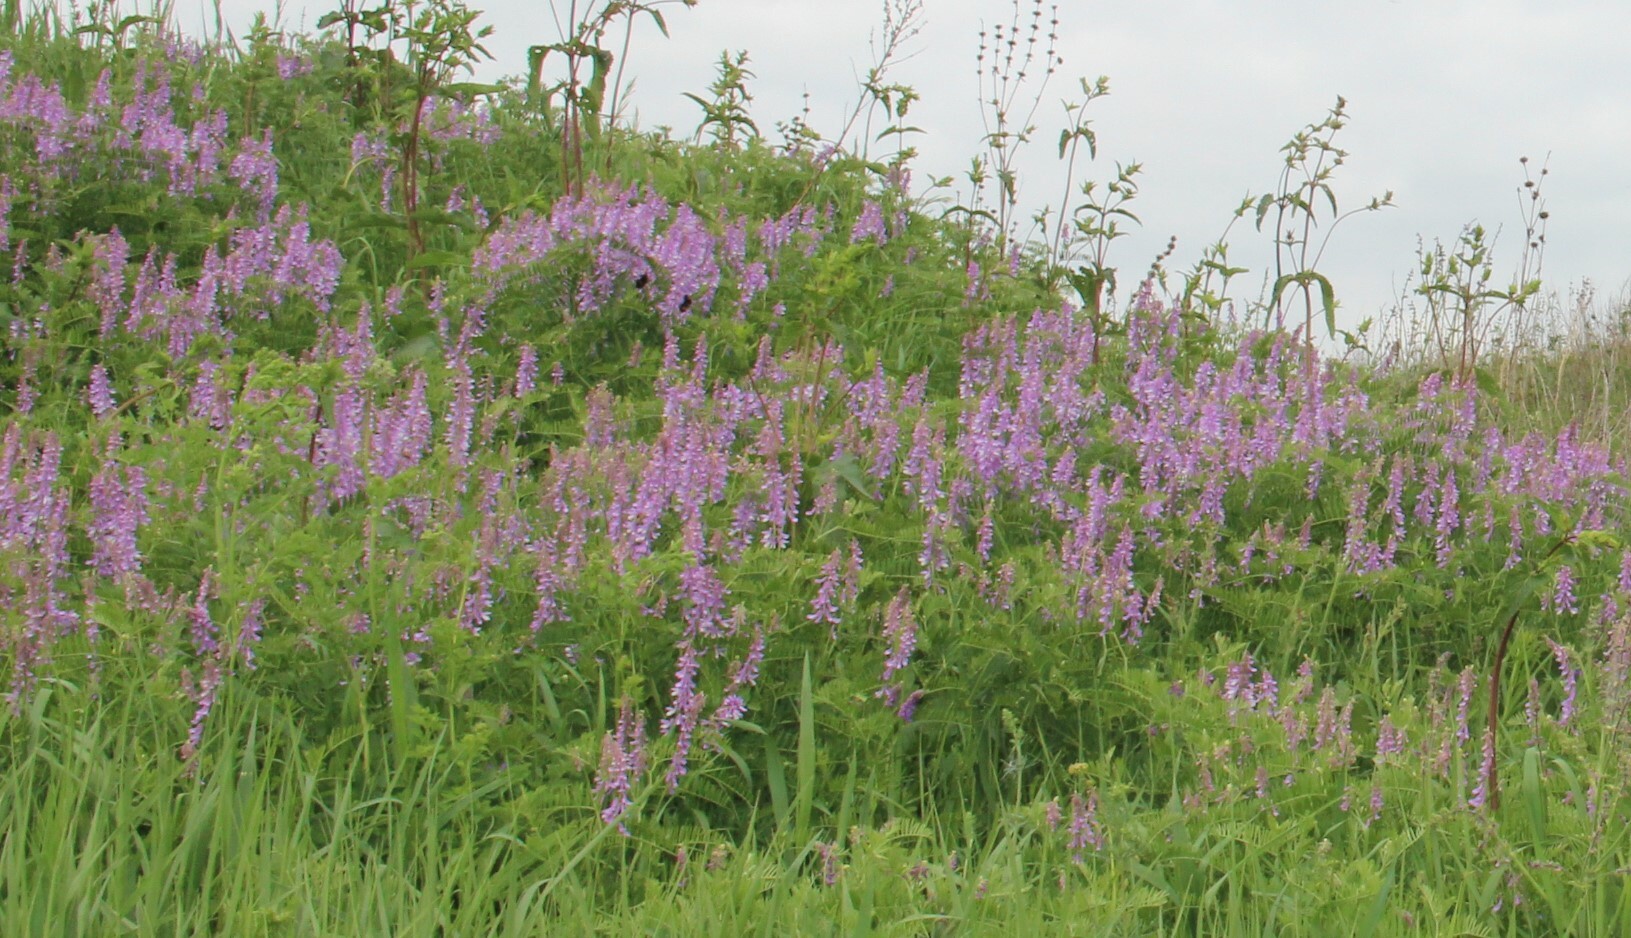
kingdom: Plantae
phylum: Tracheophyta
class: Magnoliopsida
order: Fabales
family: Fabaceae
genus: Vicia
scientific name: Vicia tenuifolia
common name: Fine-leaved vetch
